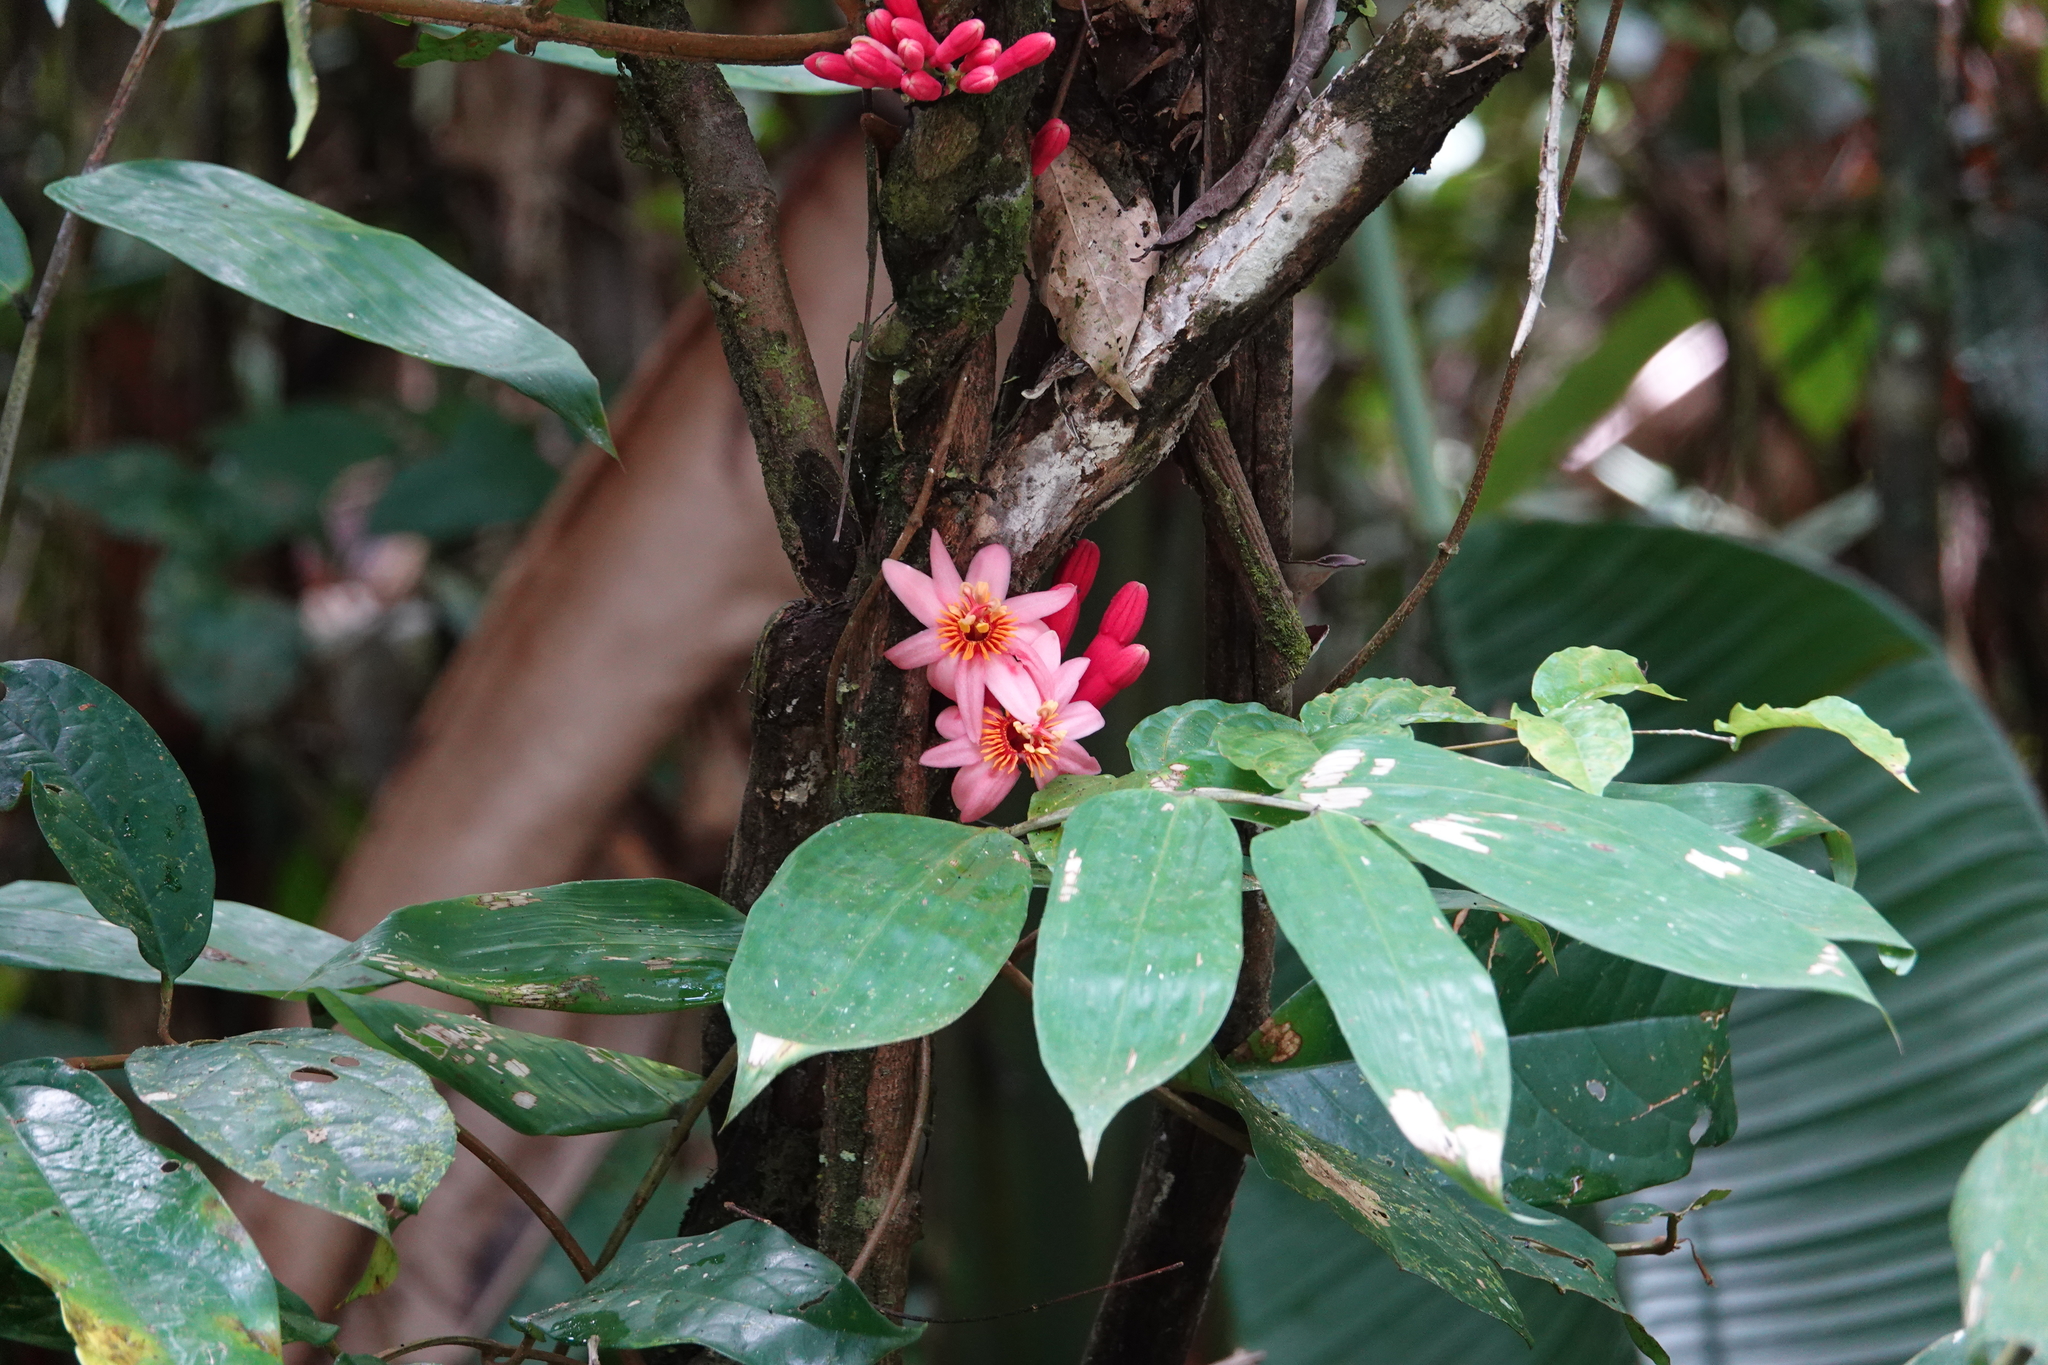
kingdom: Plantae
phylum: Tracheophyta
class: Magnoliopsida
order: Malpighiales
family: Passifloraceae
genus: Passiflora
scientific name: Passiflora amoena
